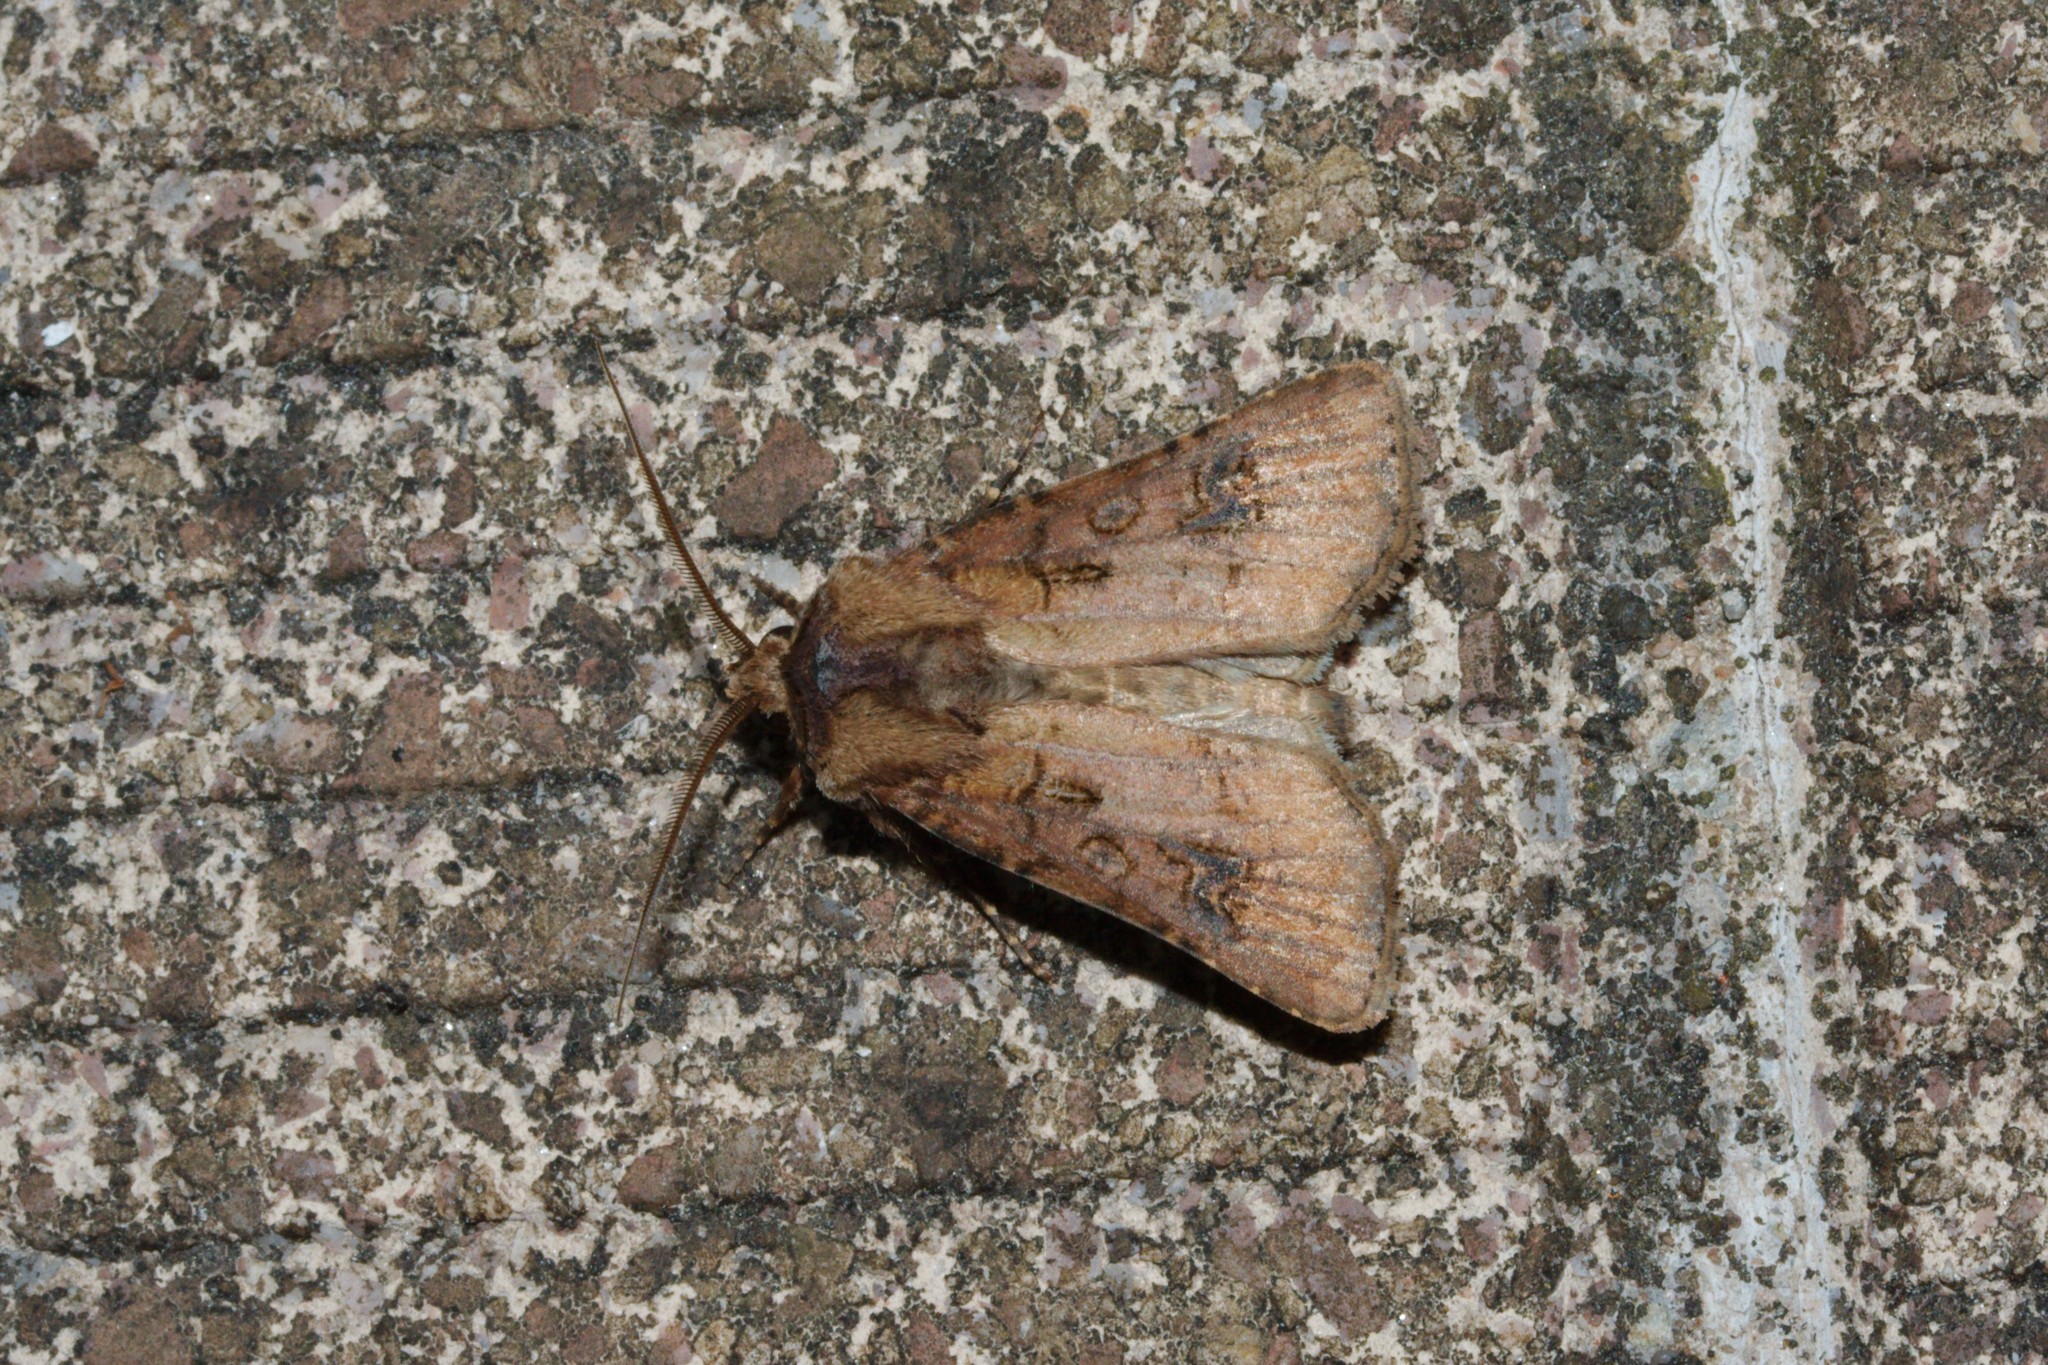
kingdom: Animalia
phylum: Arthropoda
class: Insecta
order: Lepidoptera
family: Noctuidae
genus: Agrotis
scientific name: Agrotis clavis
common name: Heart and club
